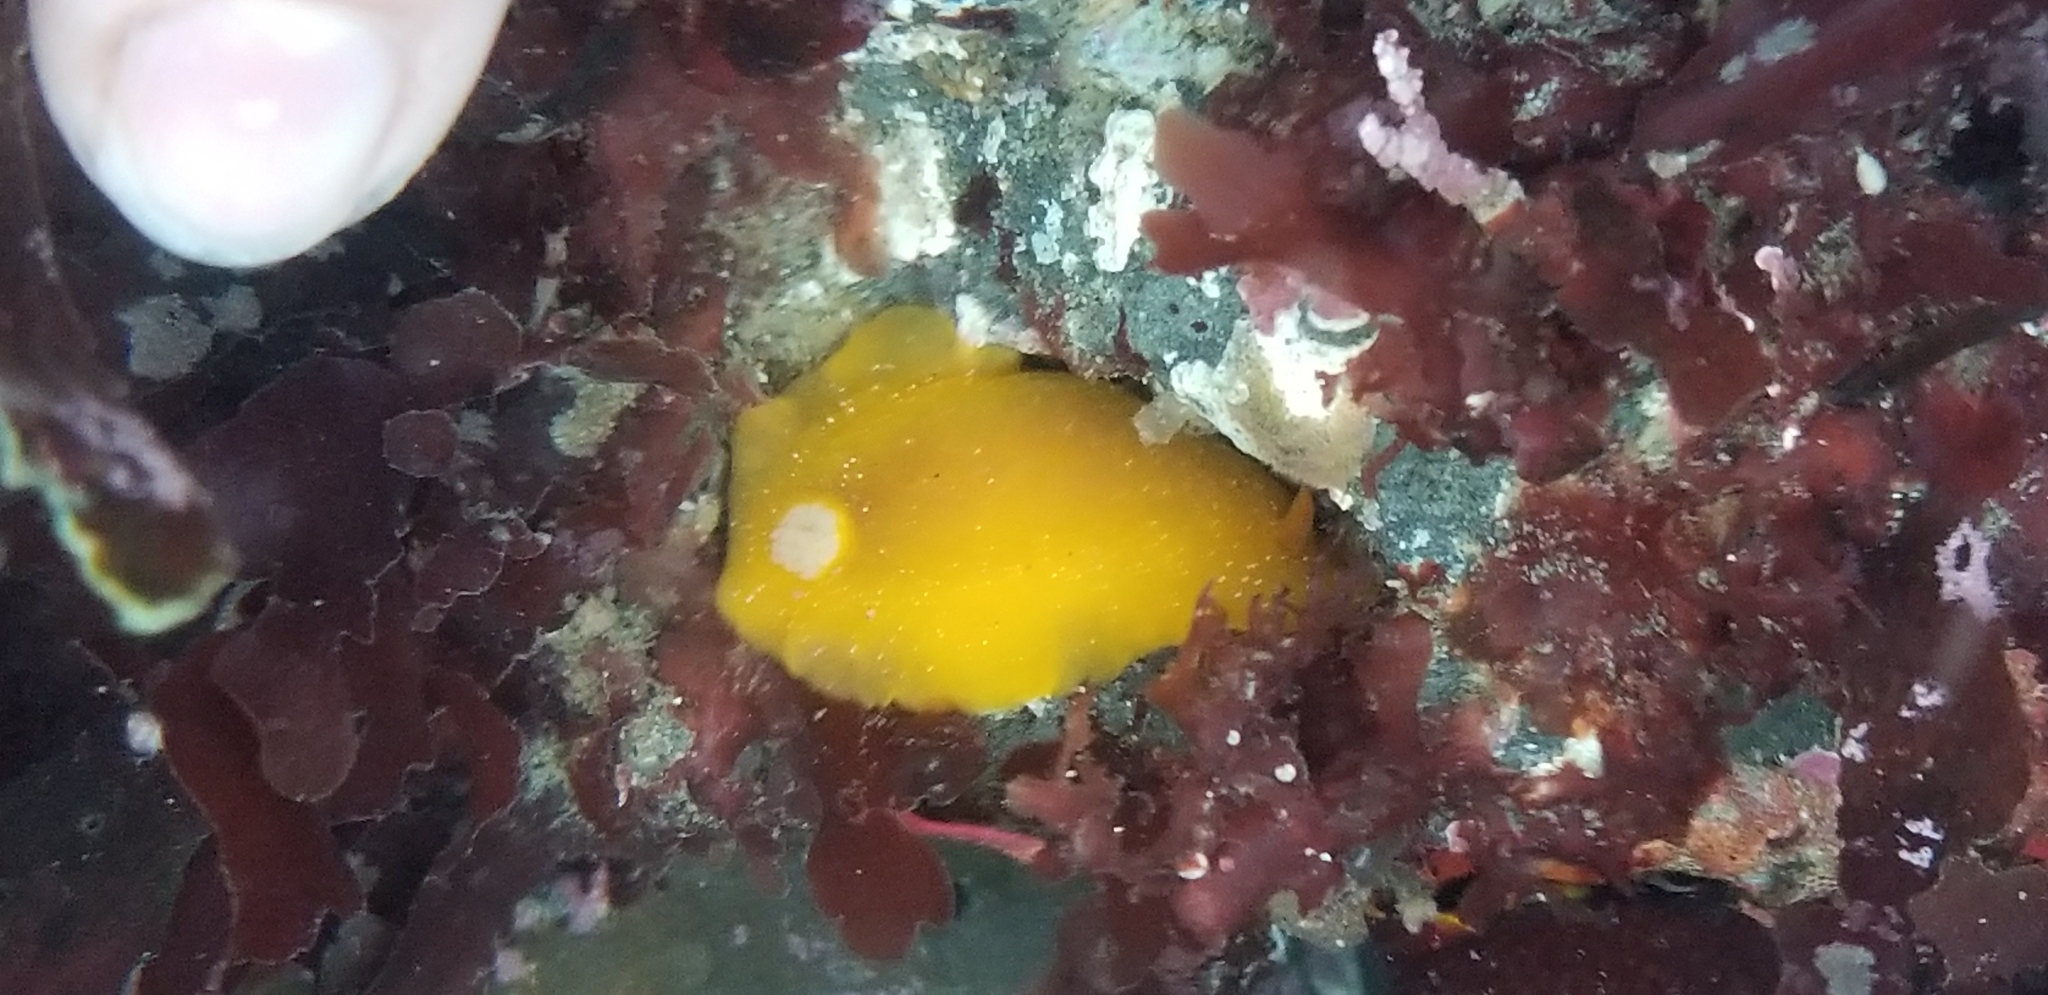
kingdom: Animalia
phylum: Mollusca
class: Gastropoda
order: Nudibranchia
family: Discodorididae
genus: Baptodoris
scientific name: Baptodoris mimetica
